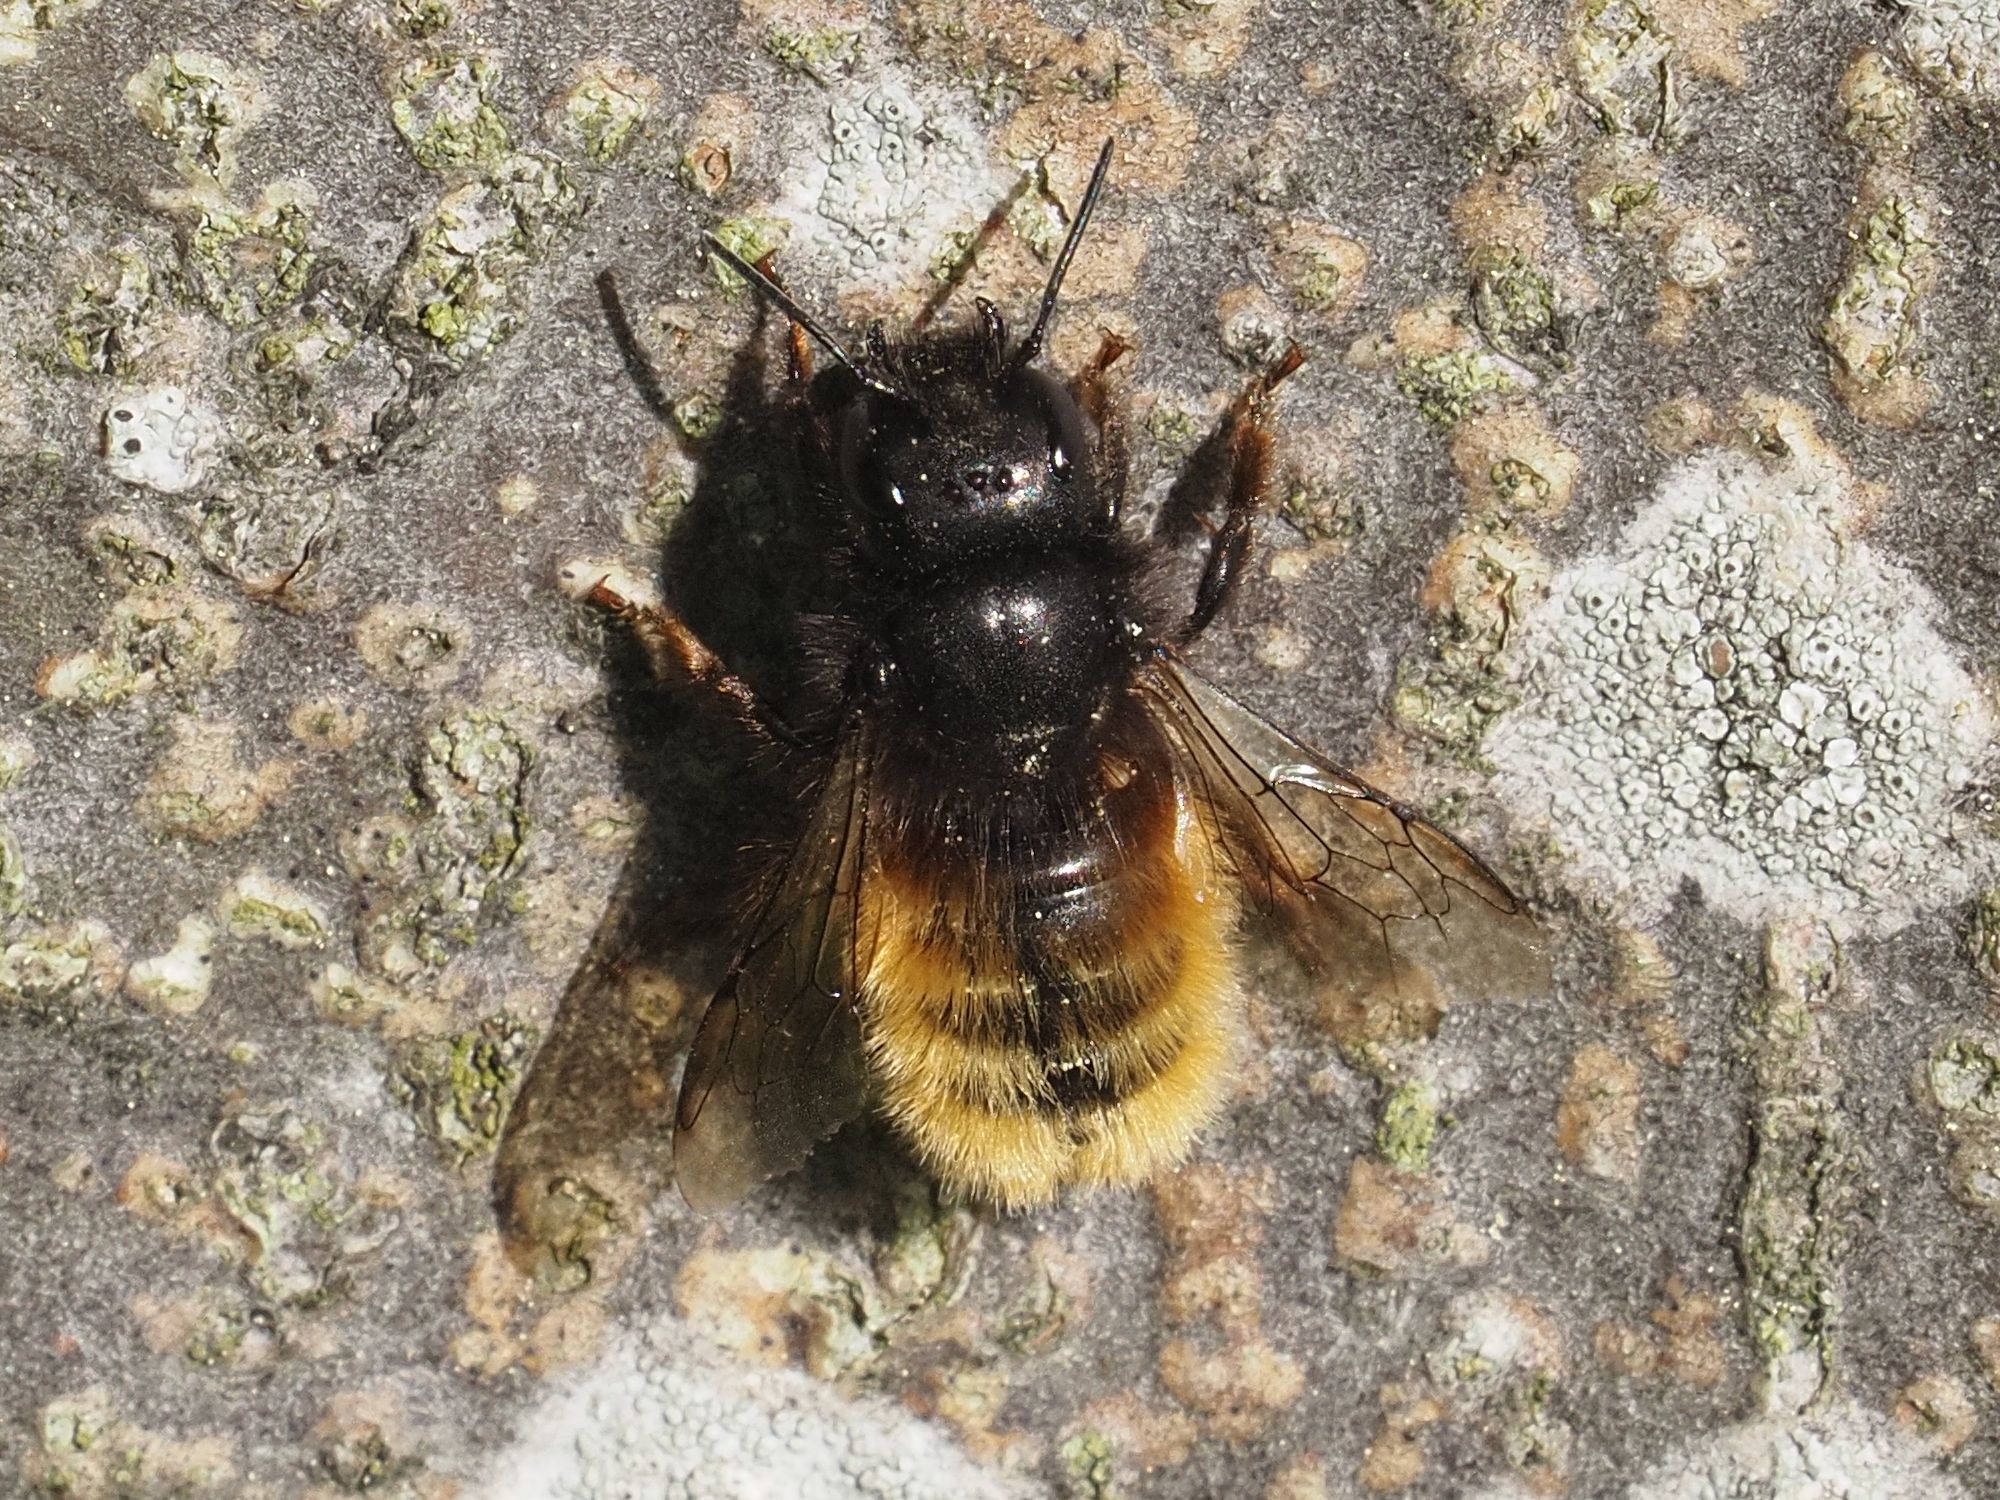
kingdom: Animalia
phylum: Arthropoda
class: Insecta
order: Hymenoptera
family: Megachilidae
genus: Osmia
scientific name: Osmia cornuta
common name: Mason bee
